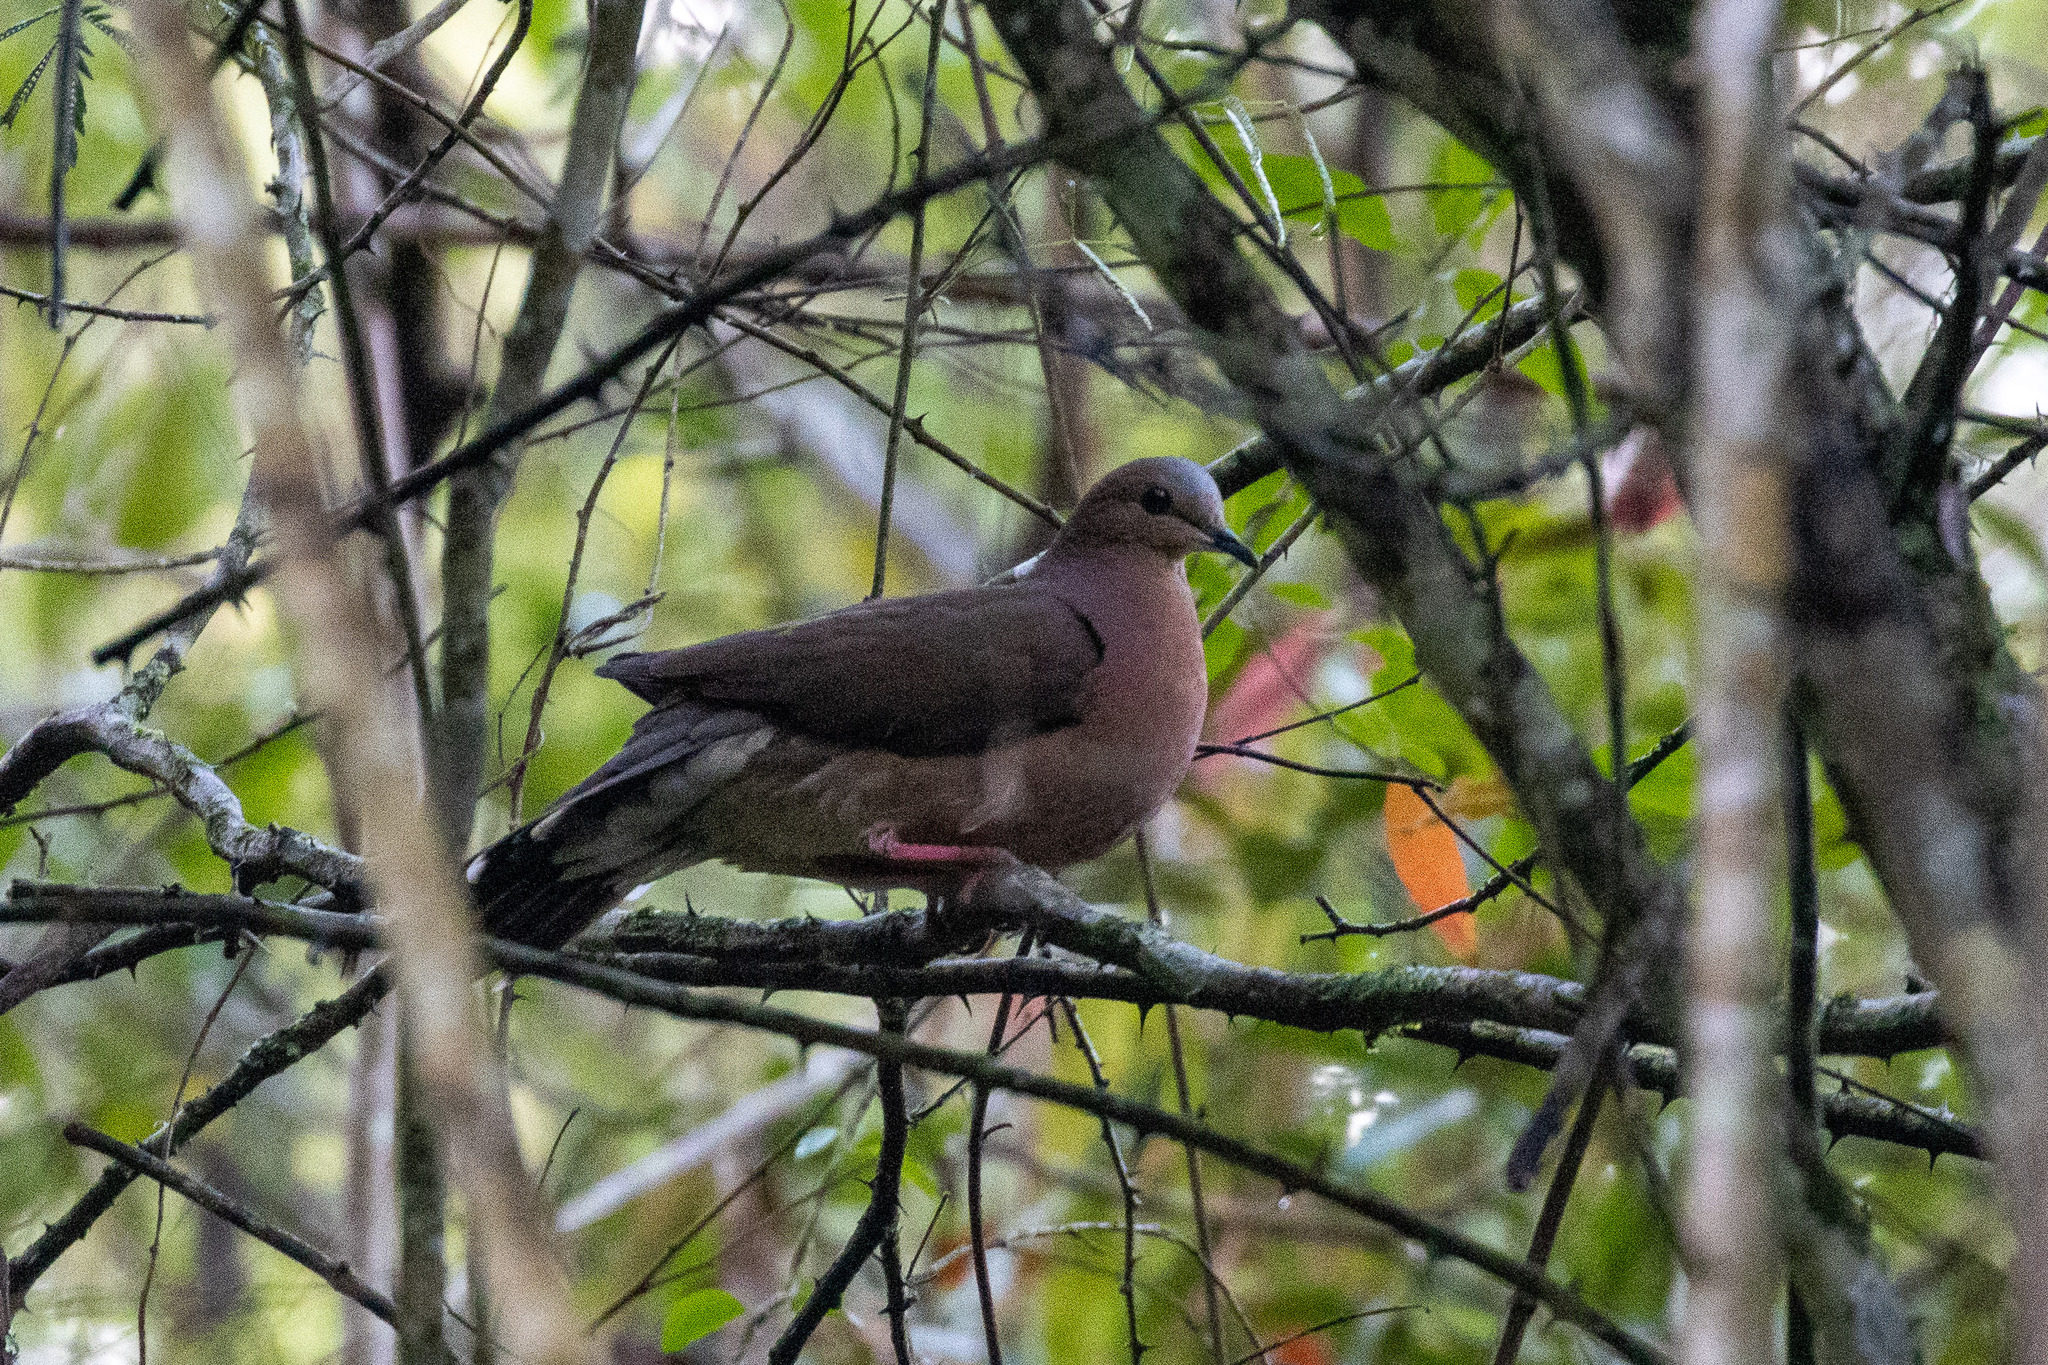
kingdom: Animalia
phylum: Chordata
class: Aves
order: Columbiformes
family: Columbidae
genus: Leptotila
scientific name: Leptotila rufaxilla
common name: Grey-fronted dove
